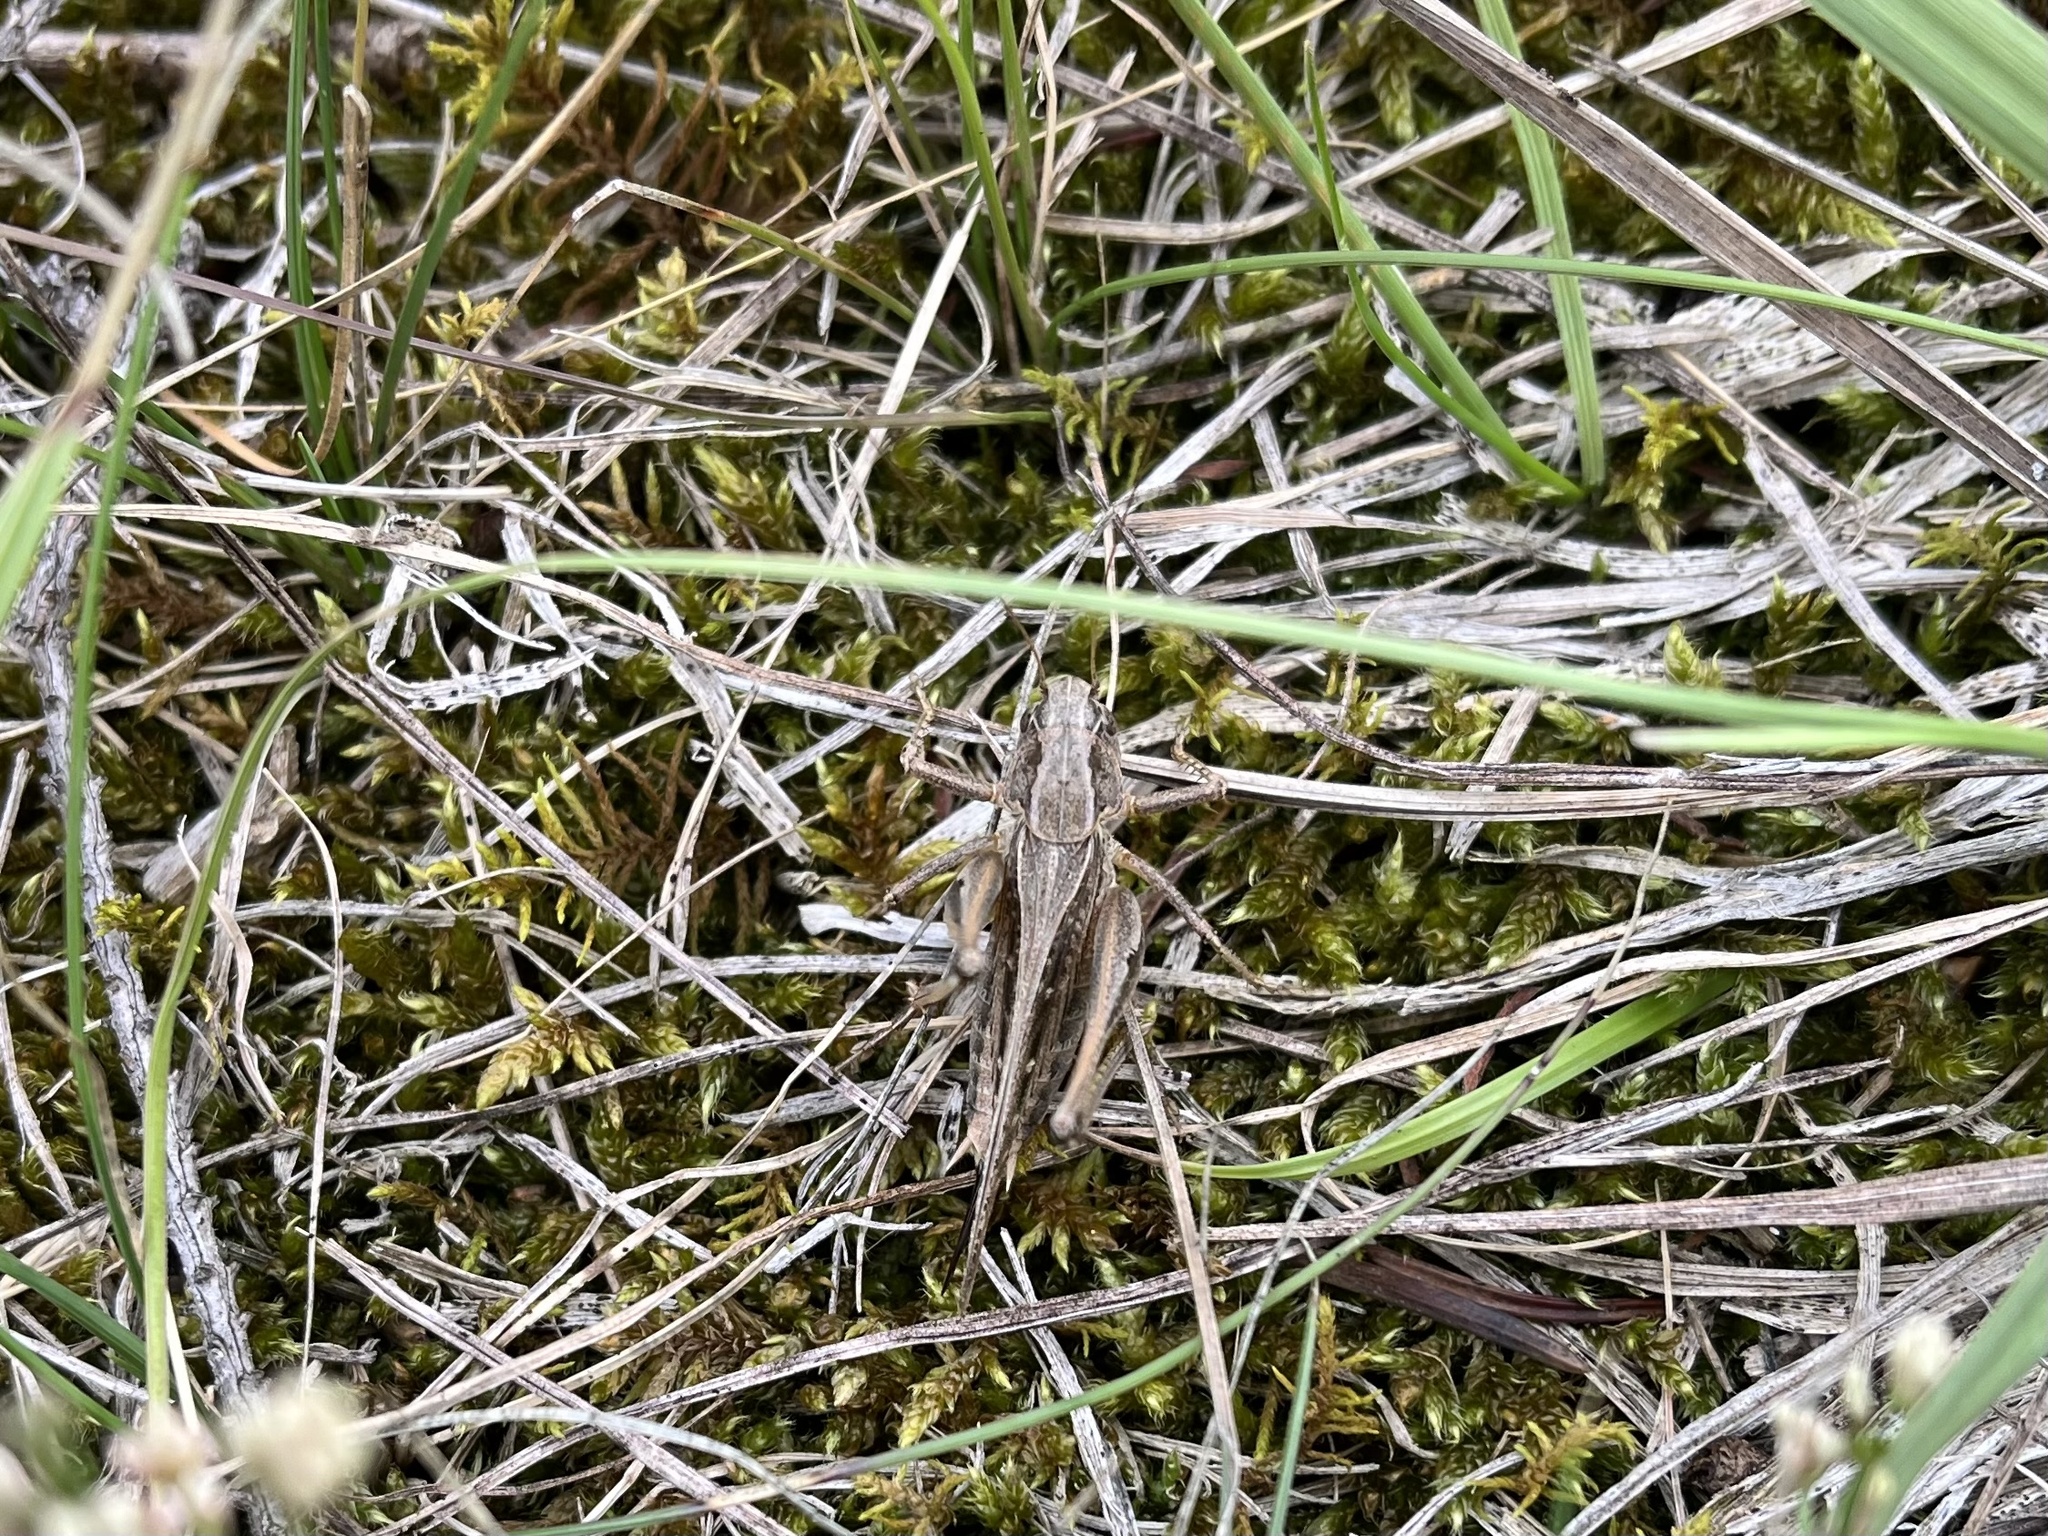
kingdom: Animalia
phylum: Arthropoda
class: Insecta
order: Orthoptera
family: Tettigoniidae
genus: Platycleis
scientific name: Platycleis albopunctata
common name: Grey bush-cricket
